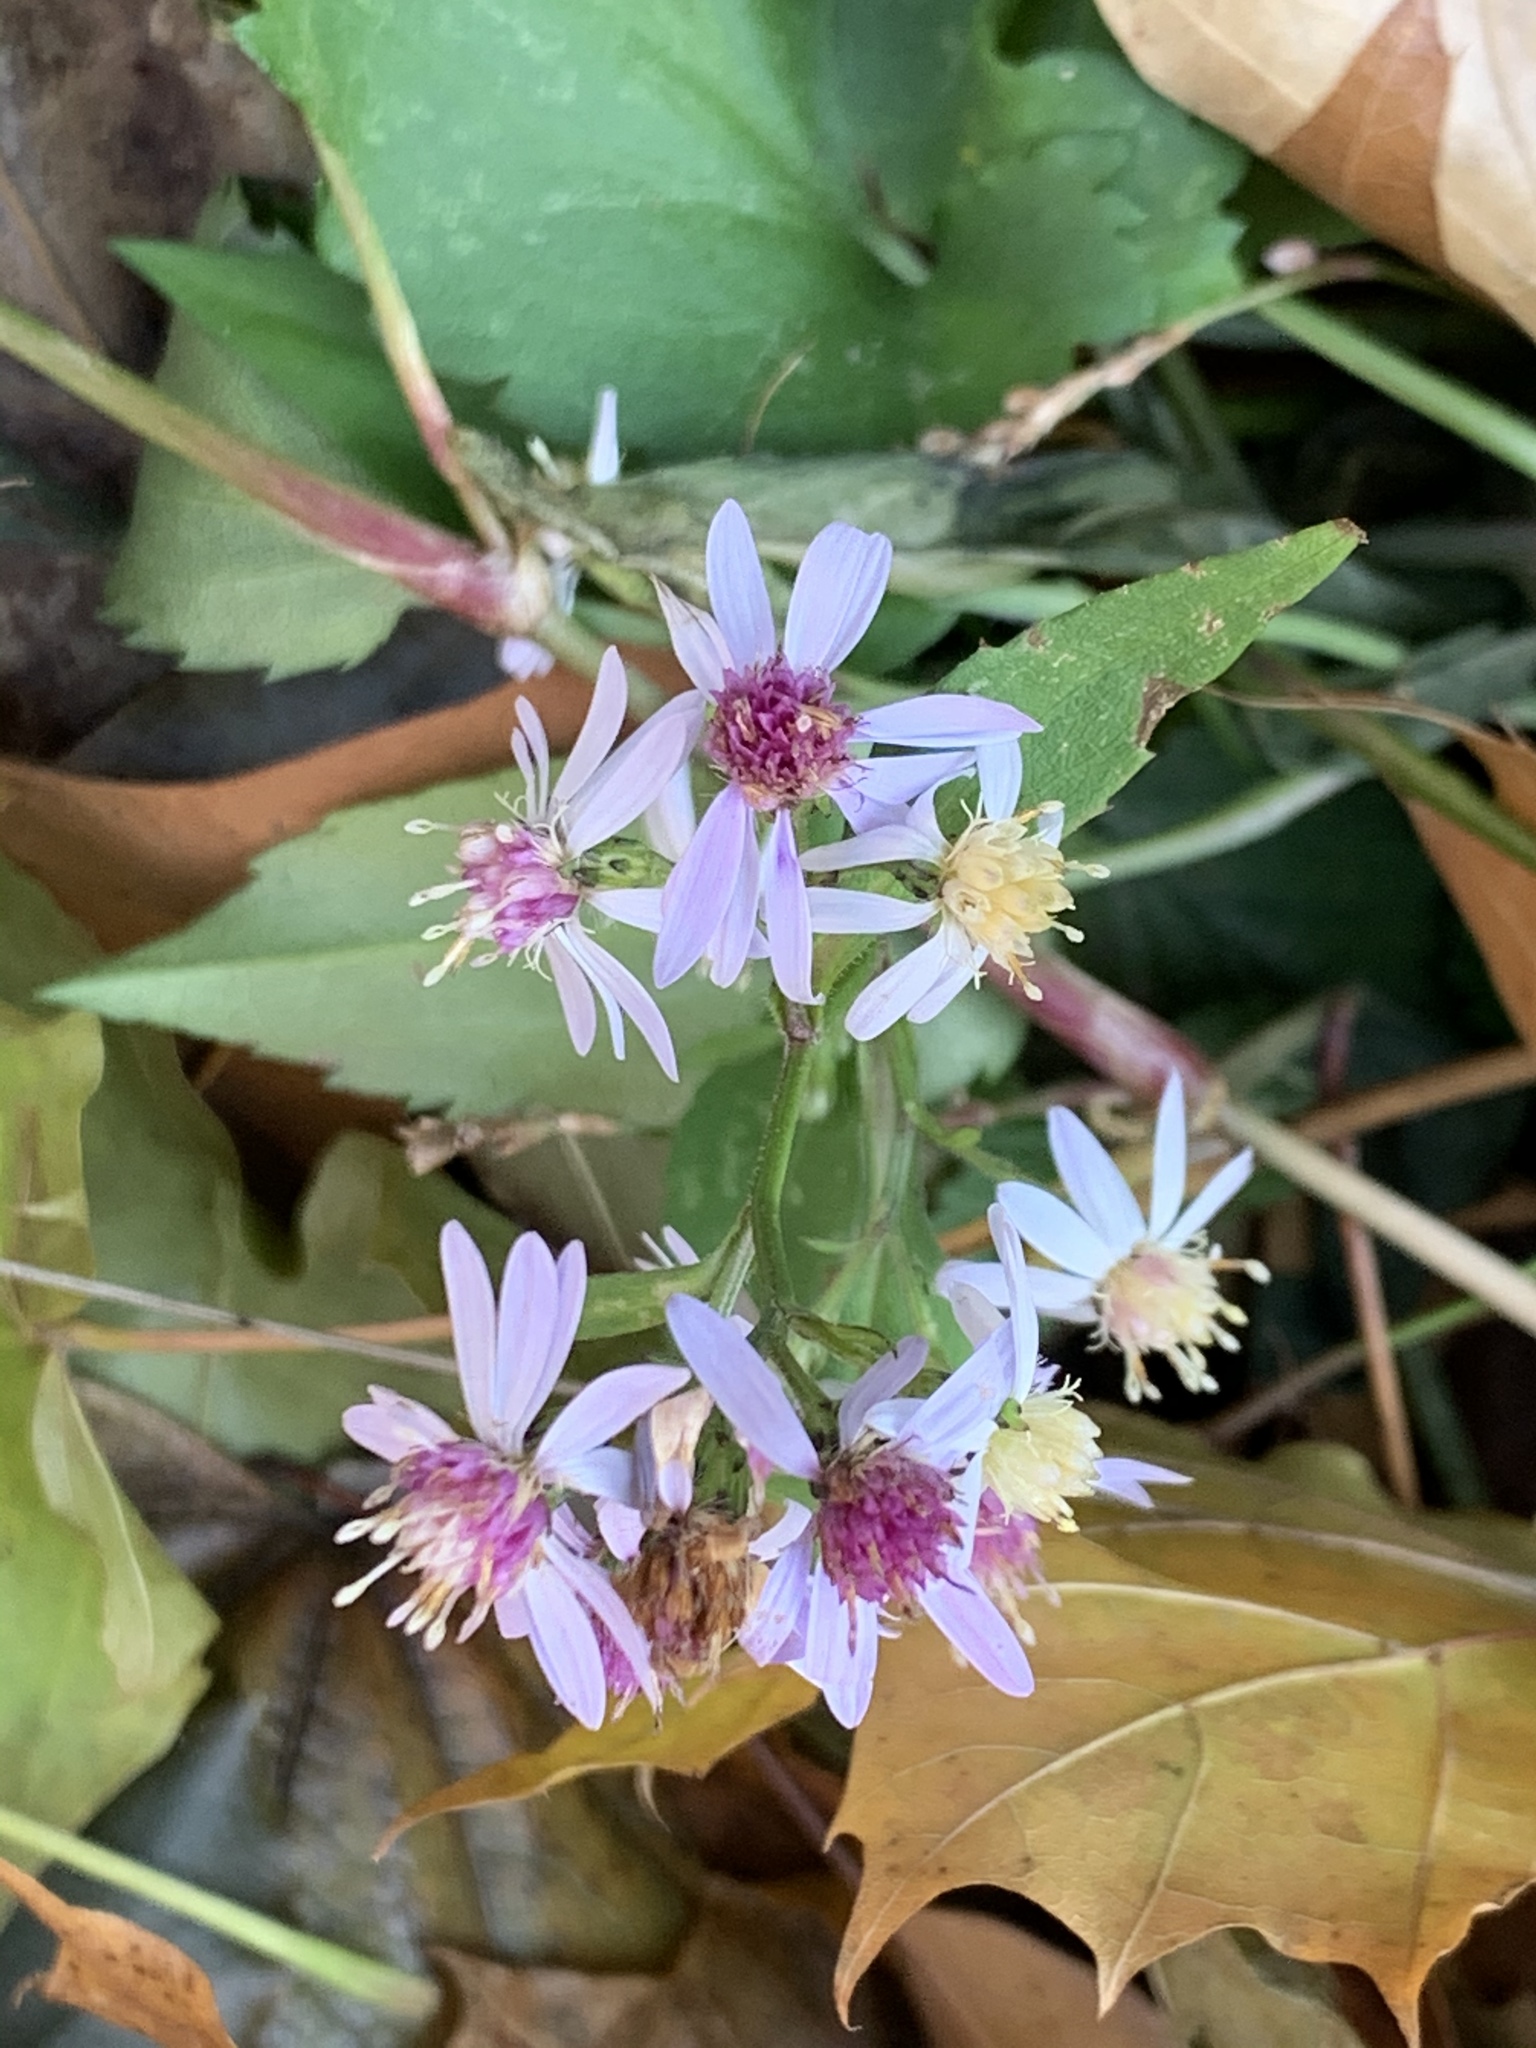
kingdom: Plantae
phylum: Tracheophyta
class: Magnoliopsida
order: Asterales
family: Asteraceae
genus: Symphyotrichum
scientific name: Symphyotrichum cordifolium
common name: Beeweed
